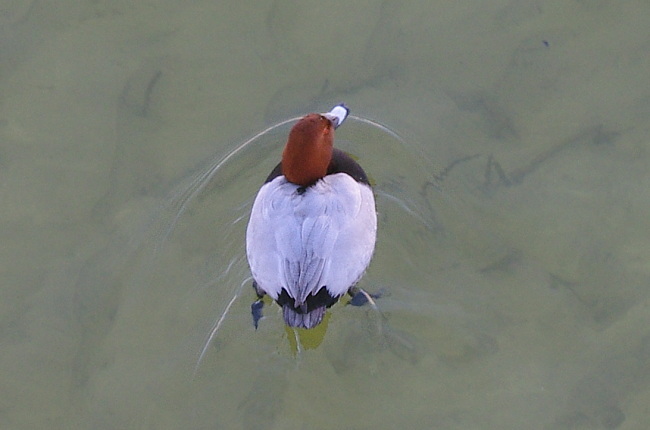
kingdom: Animalia
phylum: Chordata
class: Aves
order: Anseriformes
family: Anatidae
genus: Aythya
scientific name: Aythya ferina
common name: Common pochard
